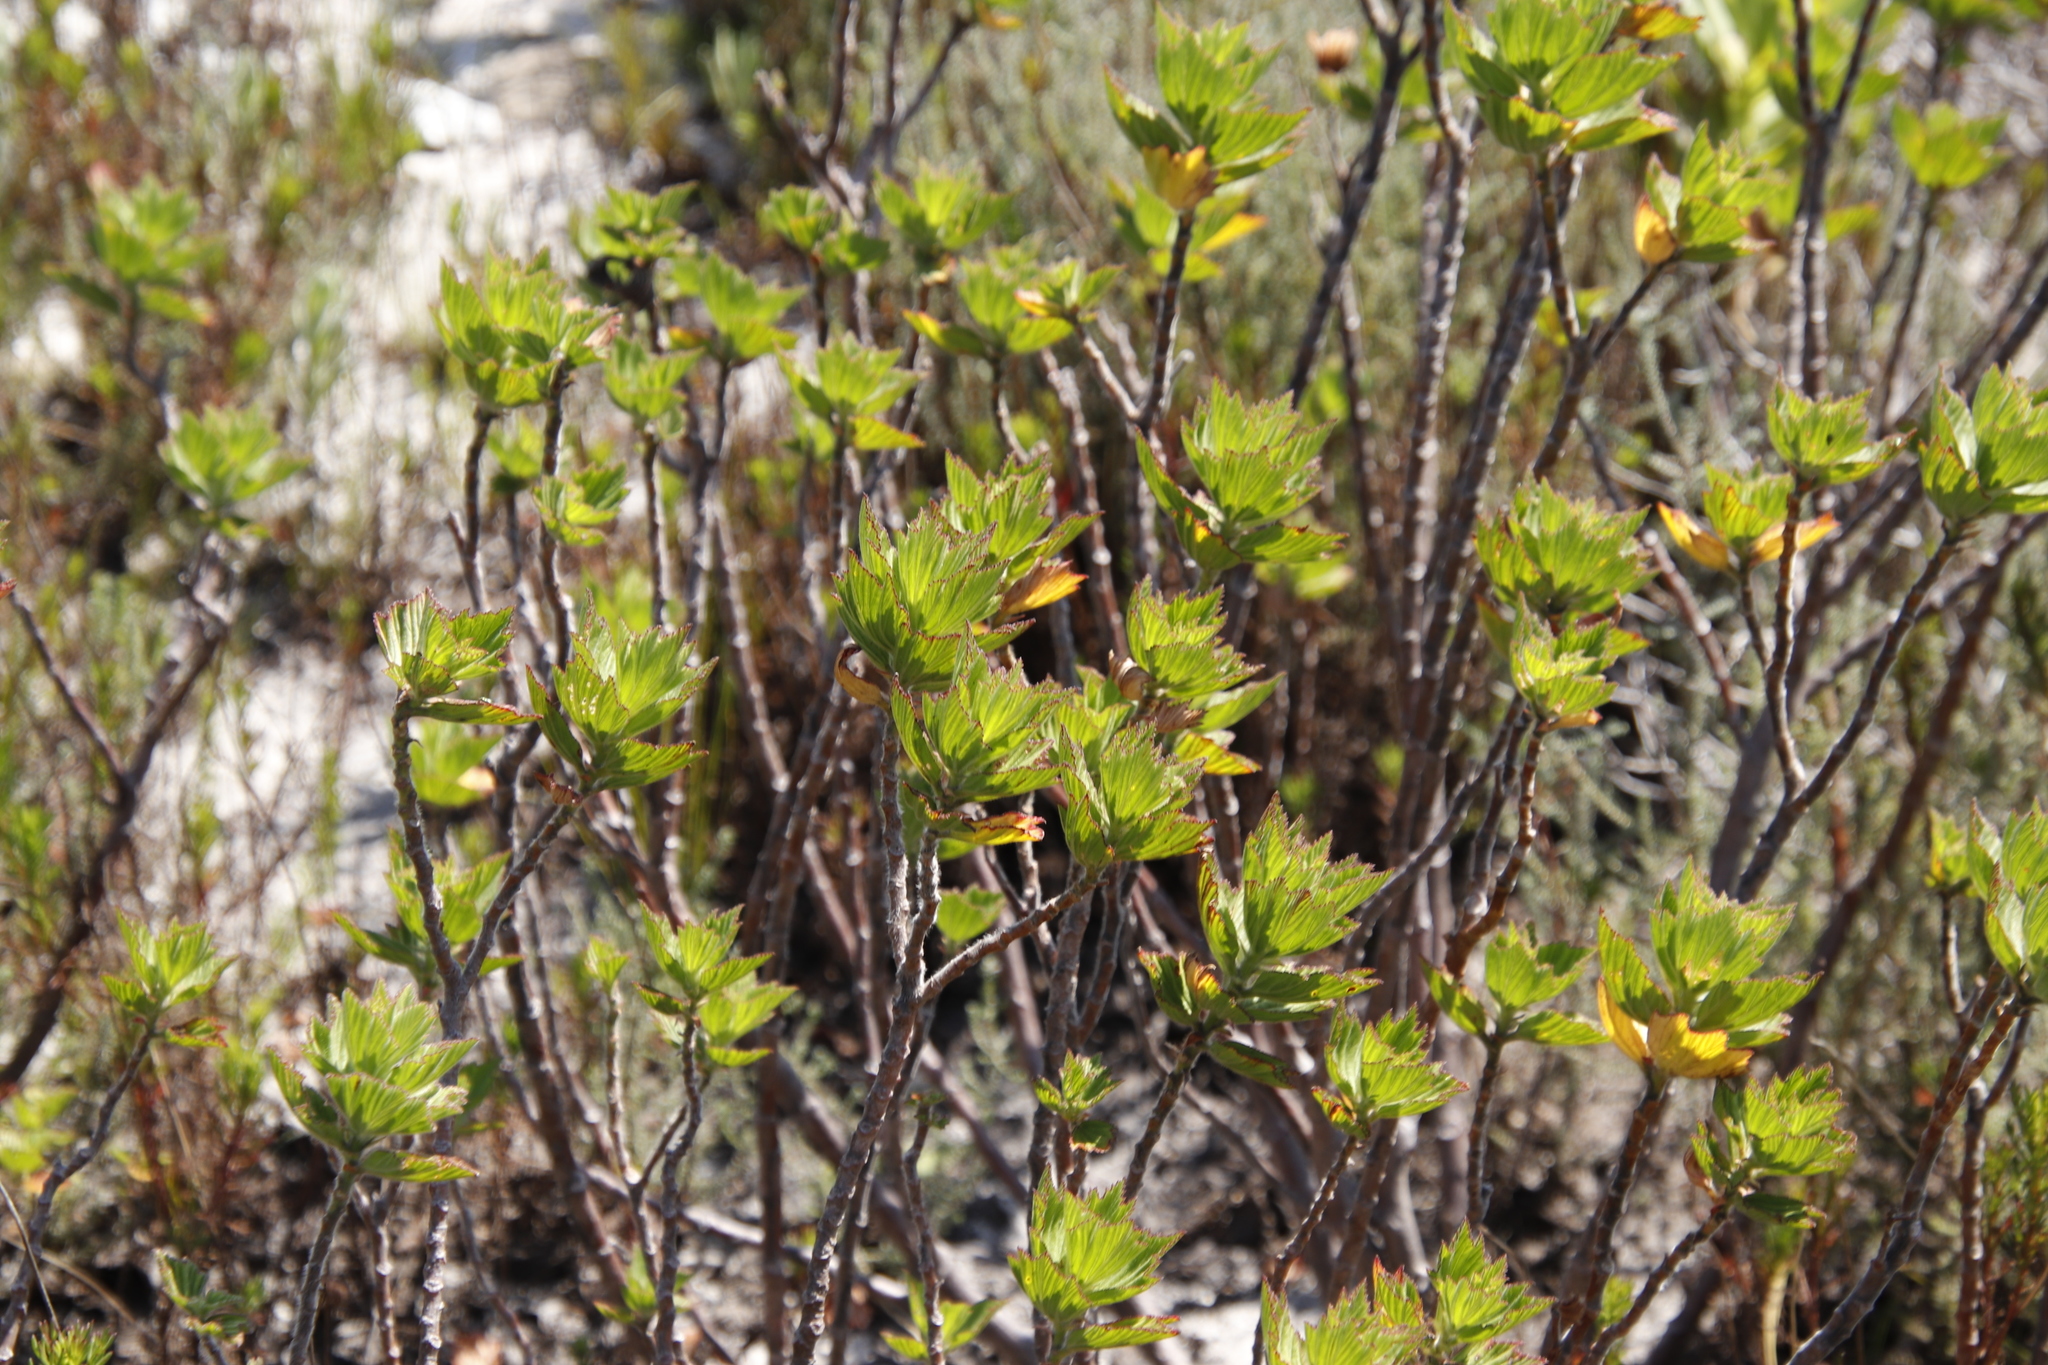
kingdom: Plantae
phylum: Tracheophyta
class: Magnoliopsida
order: Geraniales
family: Geraniaceae
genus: Pelargonium
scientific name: Pelargonium cucullatum
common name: Tree pelargonium
